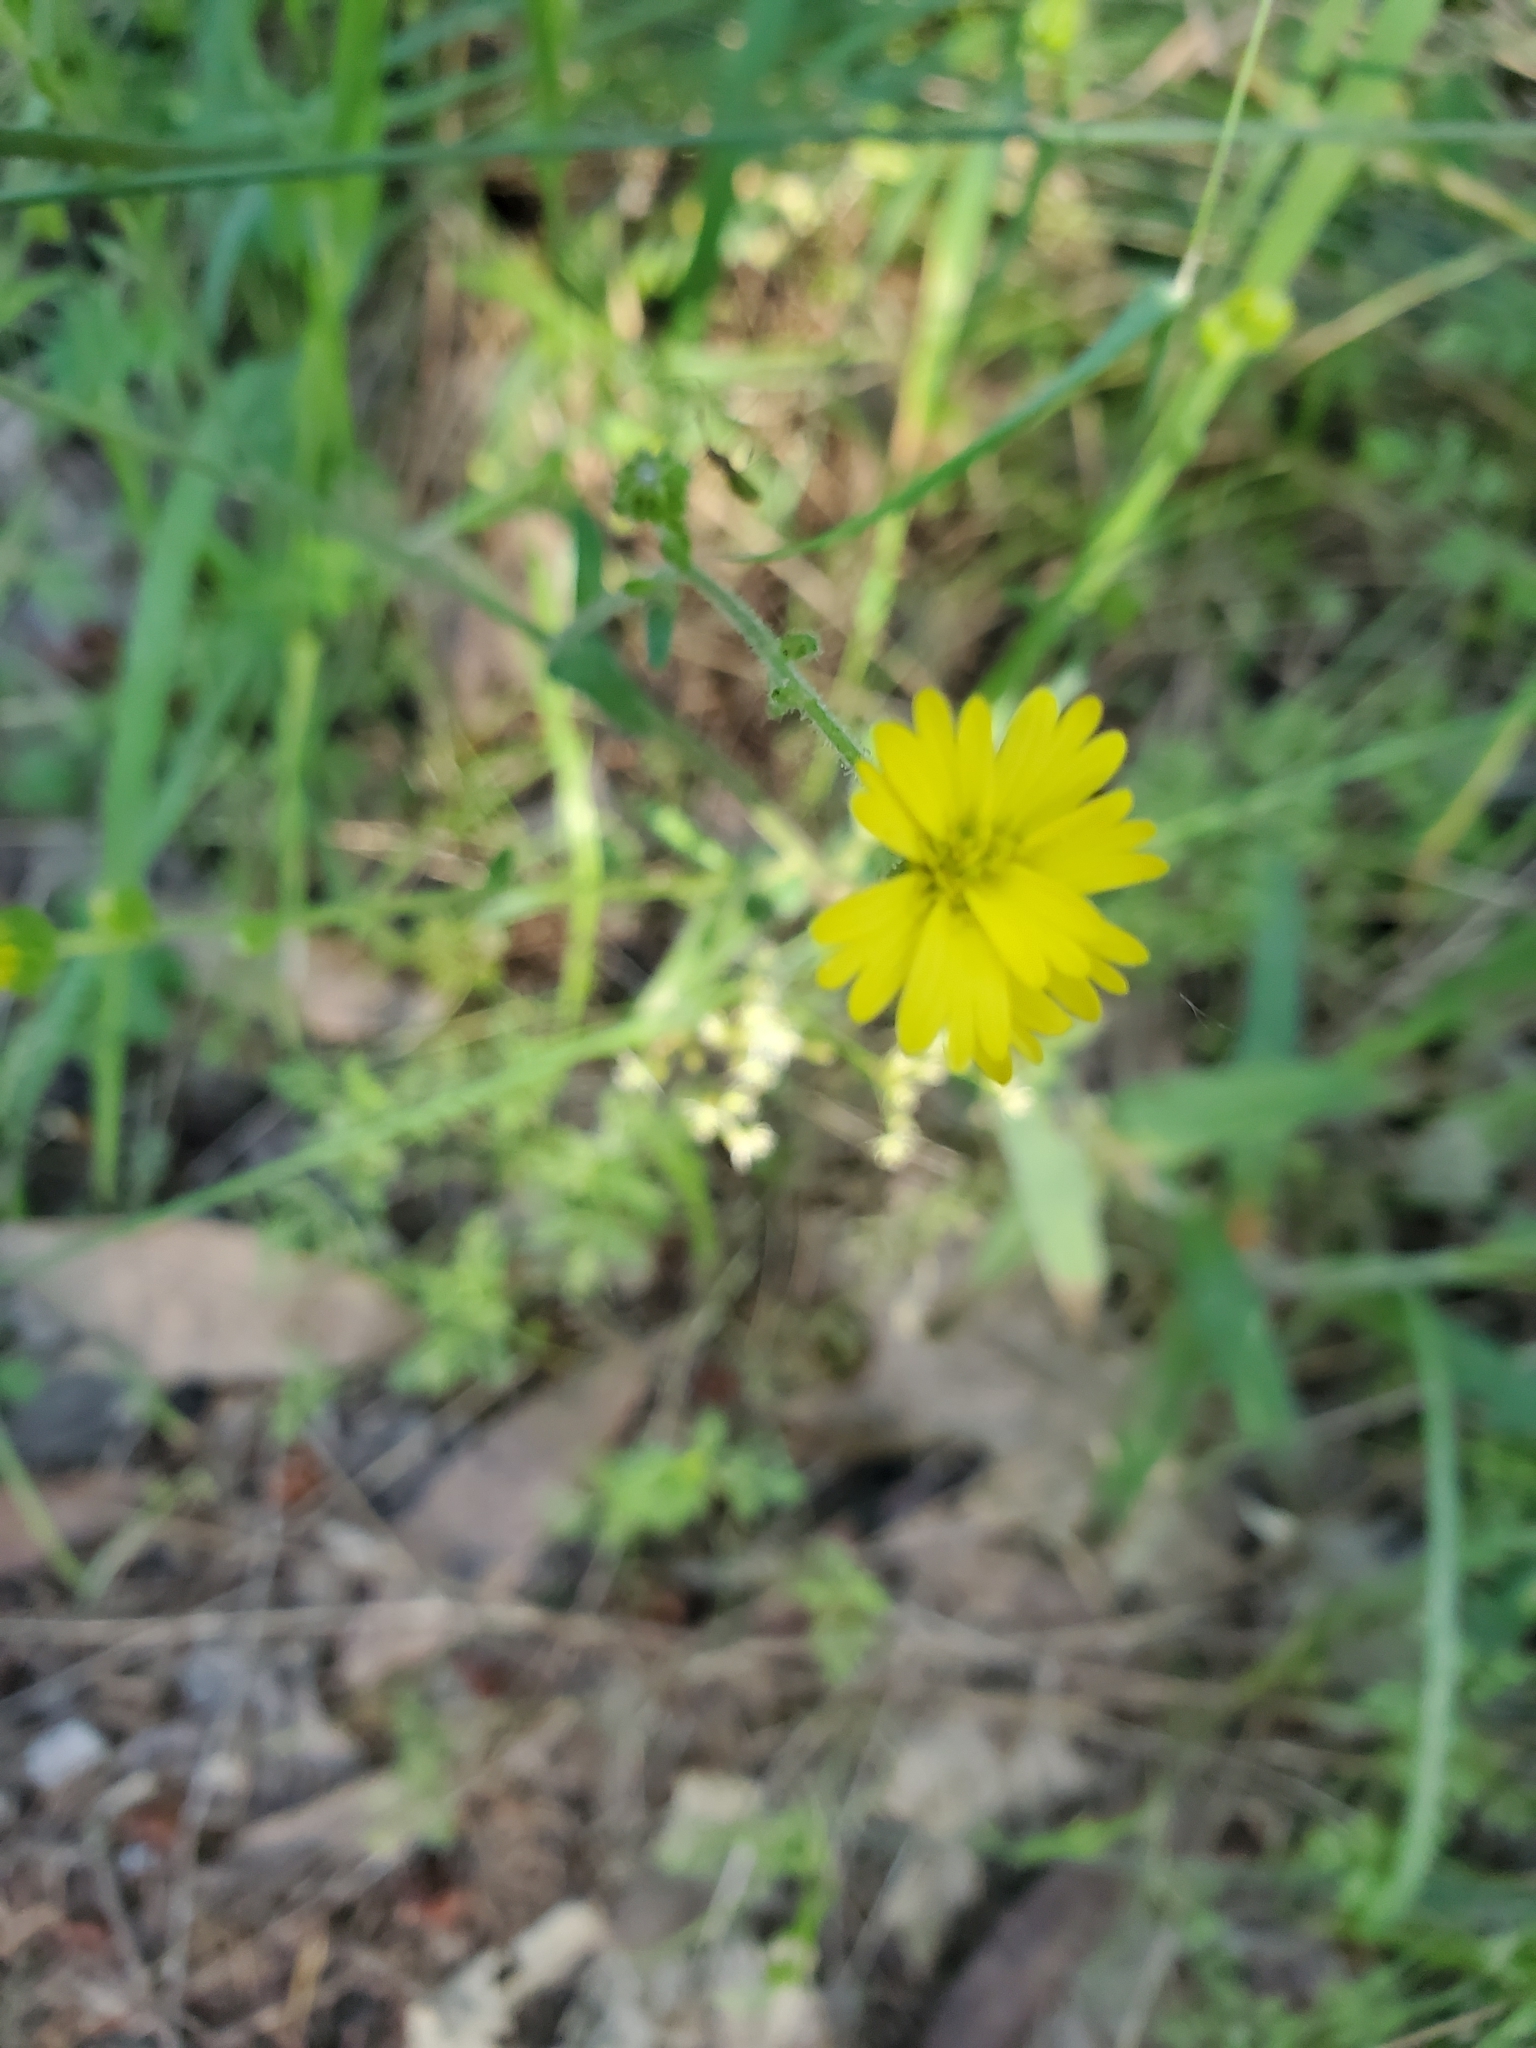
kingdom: Plantae
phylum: Tracheophyta
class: Magnoliopsida
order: Asterales
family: Asteraceae
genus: Anisocarpus
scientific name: Anisocarpus madioides
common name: Woodland madia
